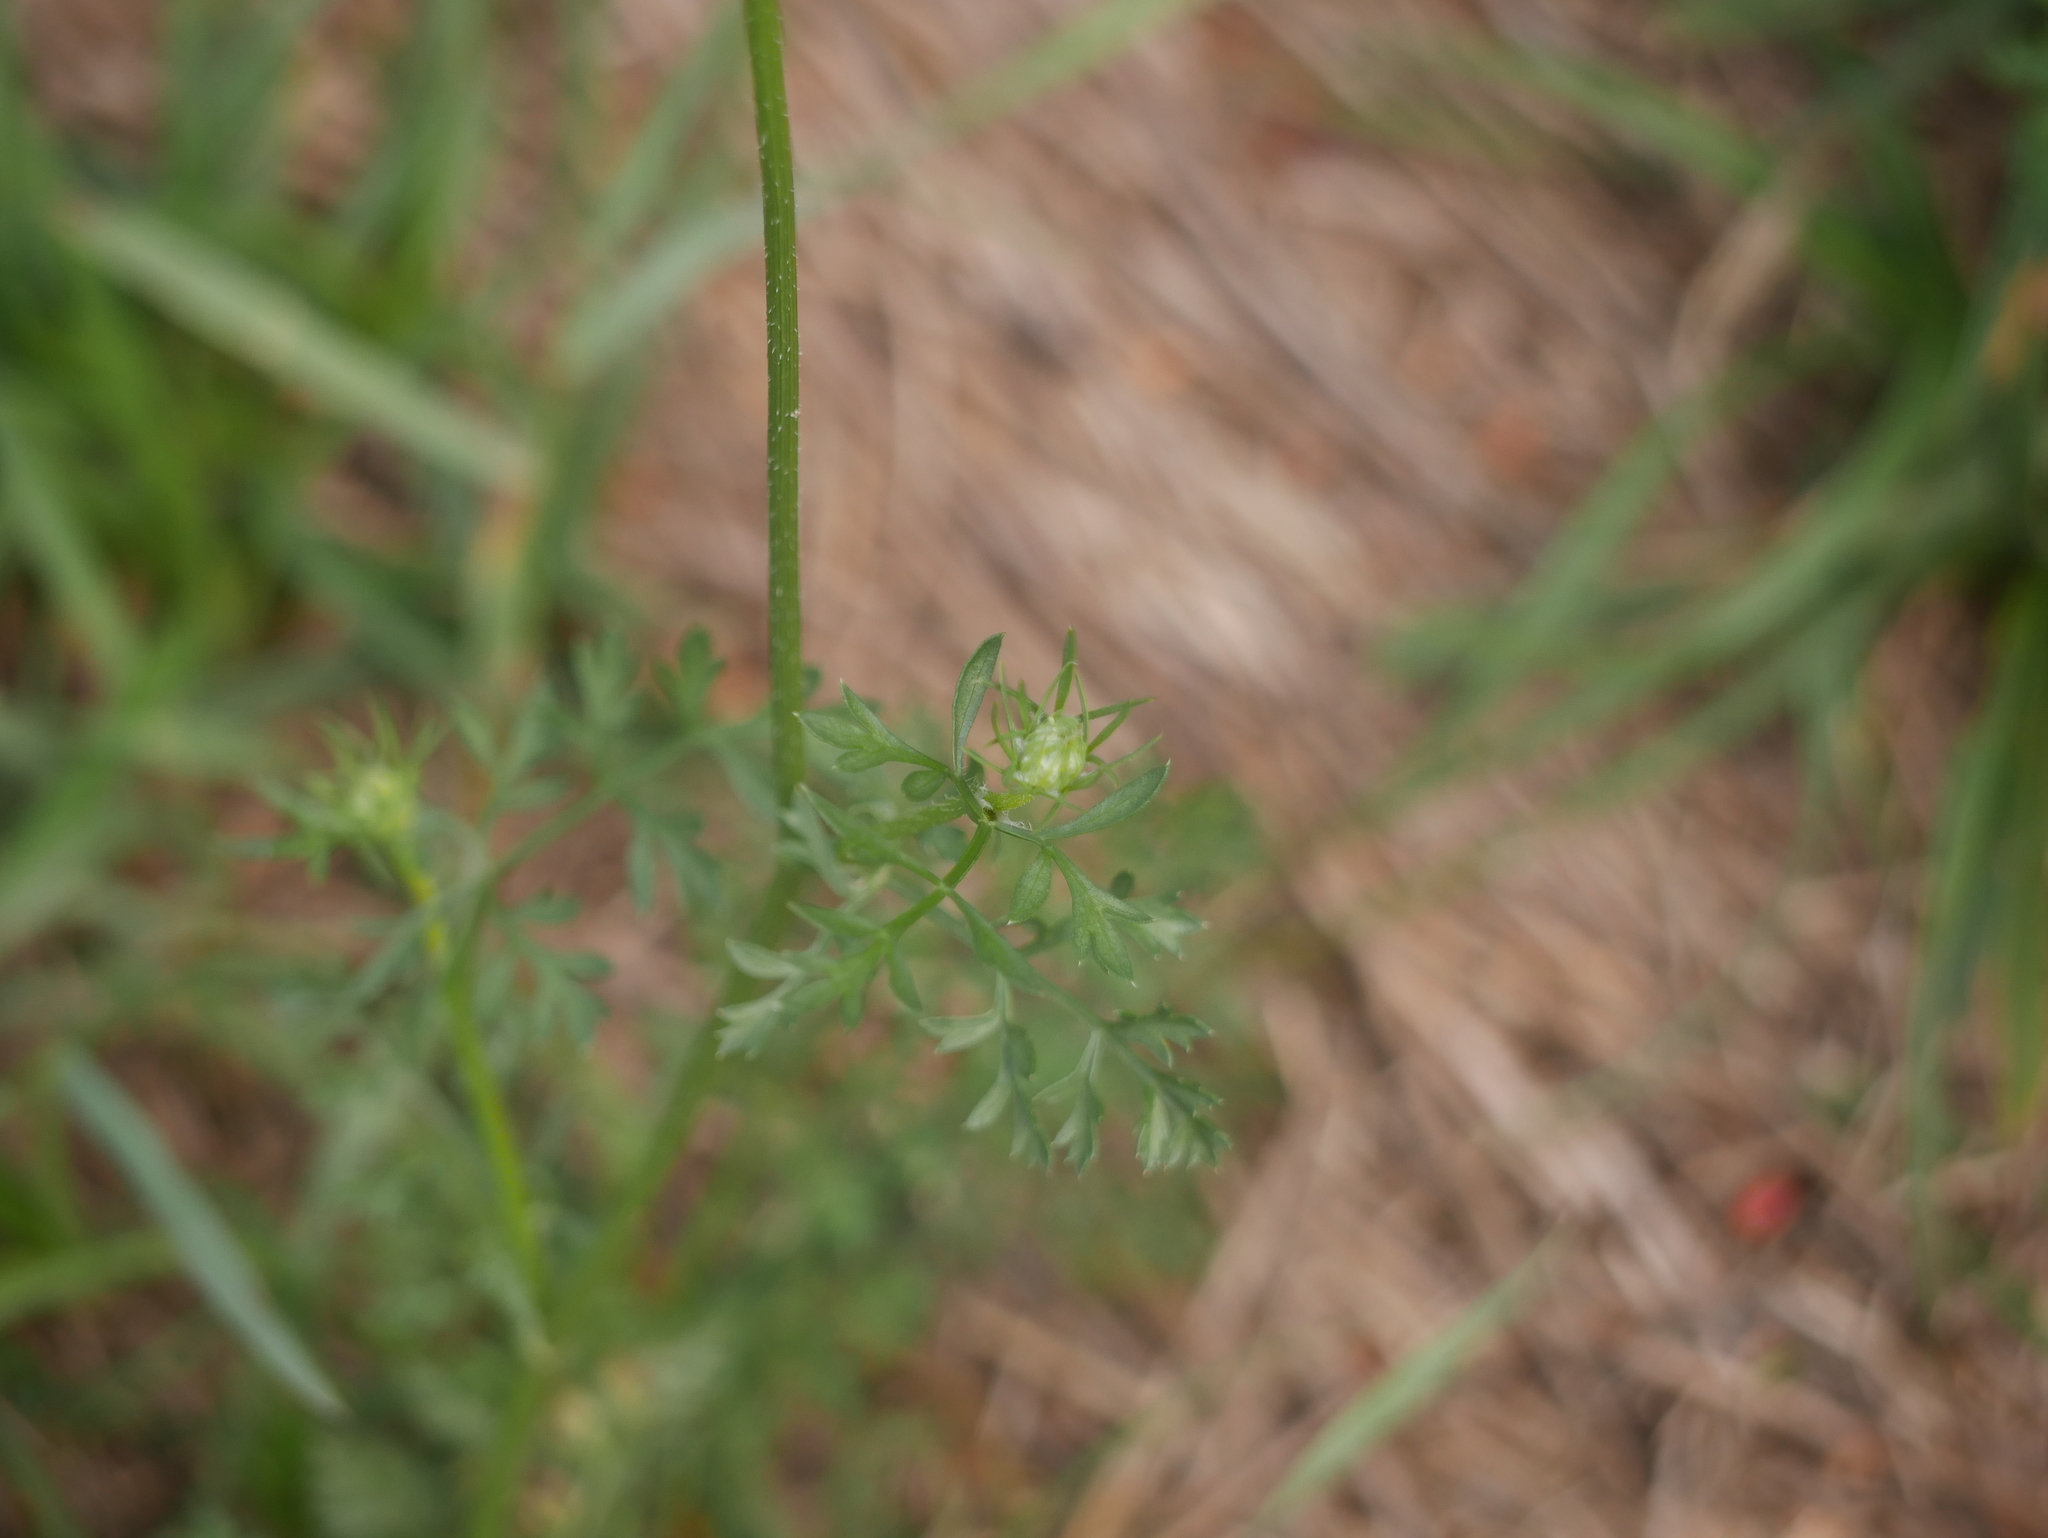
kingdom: Plantae
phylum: Tracheophyta
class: Magnoliopsida
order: Apiales
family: Apiaceae
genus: Daucus
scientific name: Daucus carota
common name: Wild carrot
